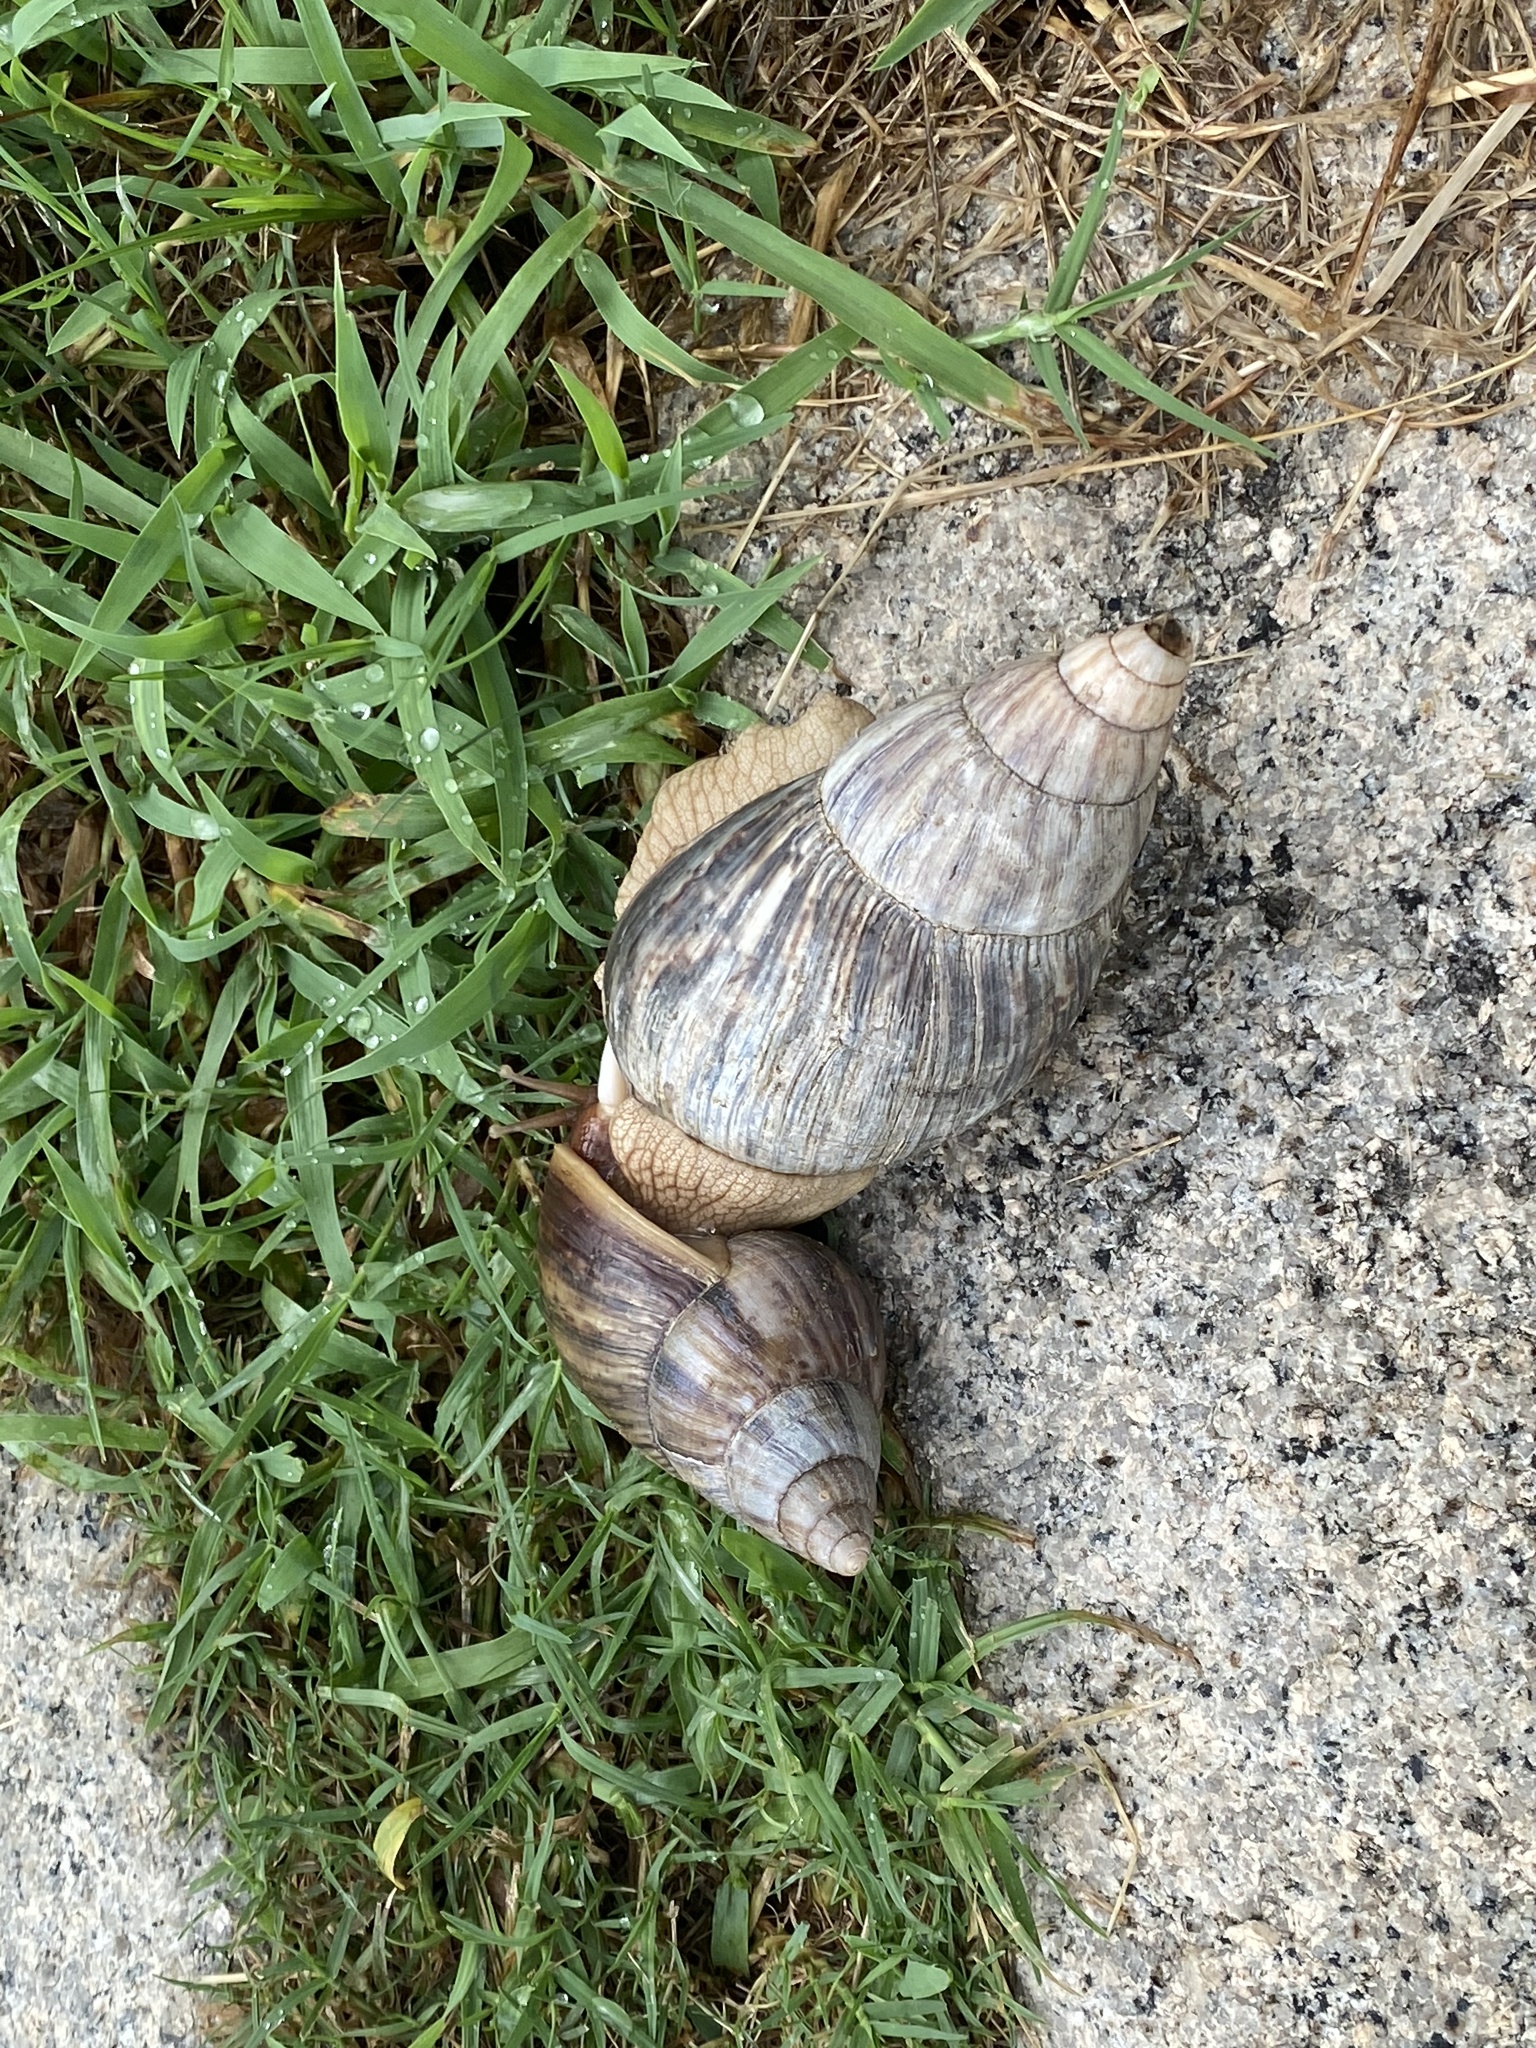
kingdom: Animalia
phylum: Mollusca
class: Gastropoda
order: Stylommatophora
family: Achatinidae
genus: Lissachatina
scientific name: Lissachatina immaculata
